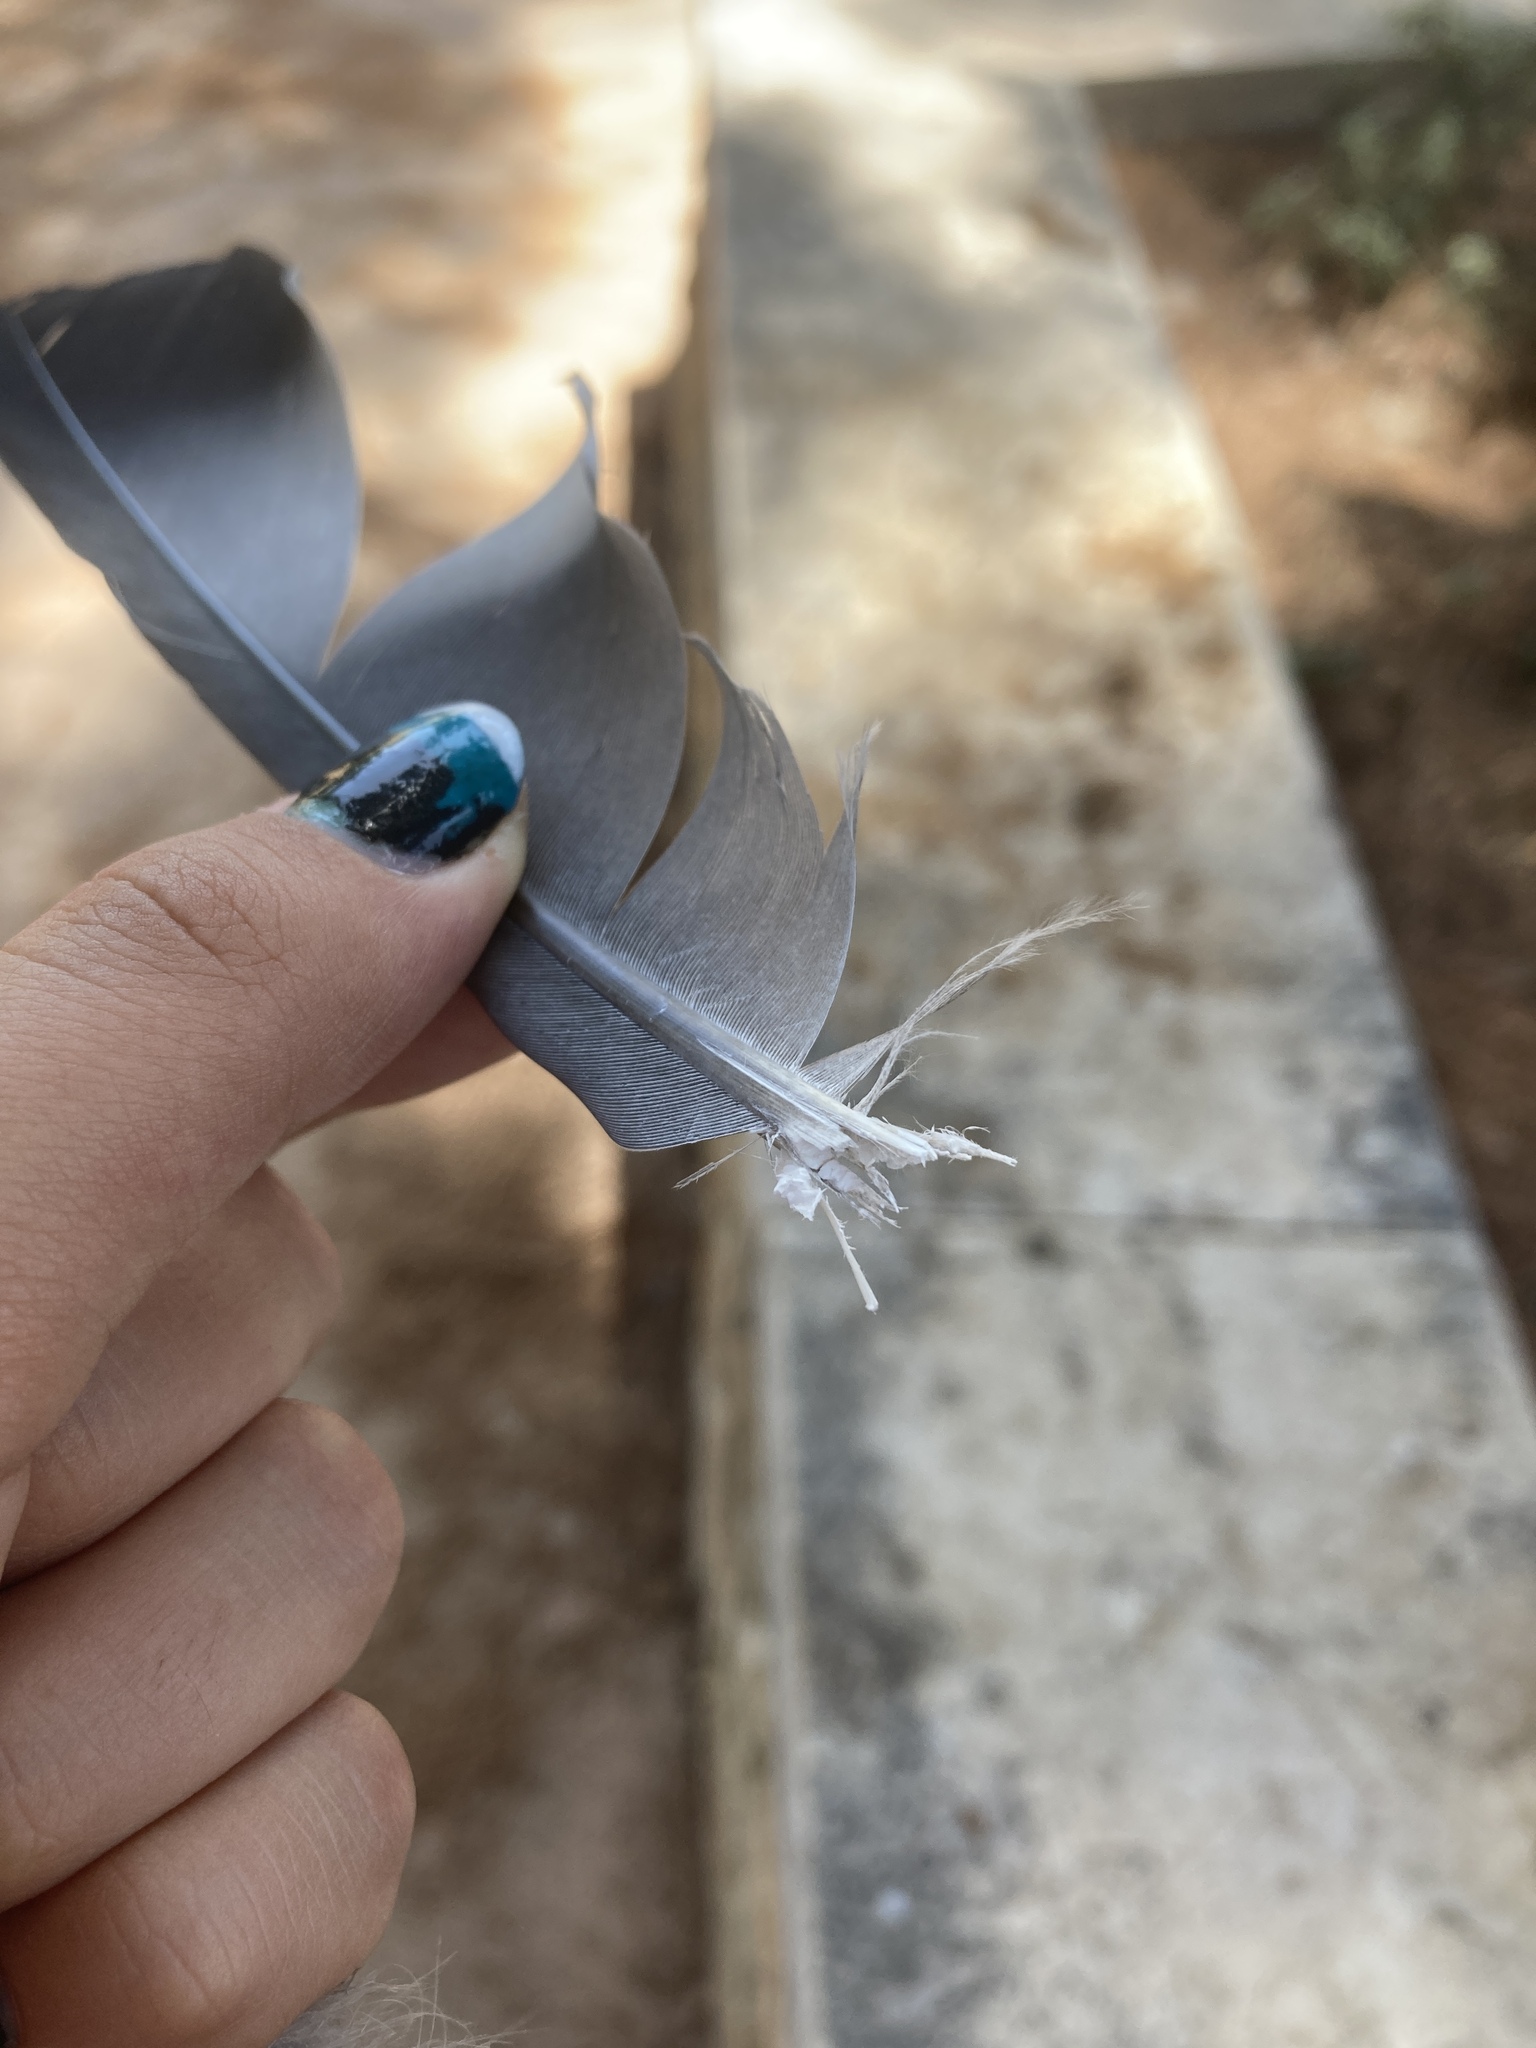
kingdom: Animalia
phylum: Chordata
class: Aves
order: Columbiformes
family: Columbidae
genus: Columba
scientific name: Columba palumbus
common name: Common wood pigeon
